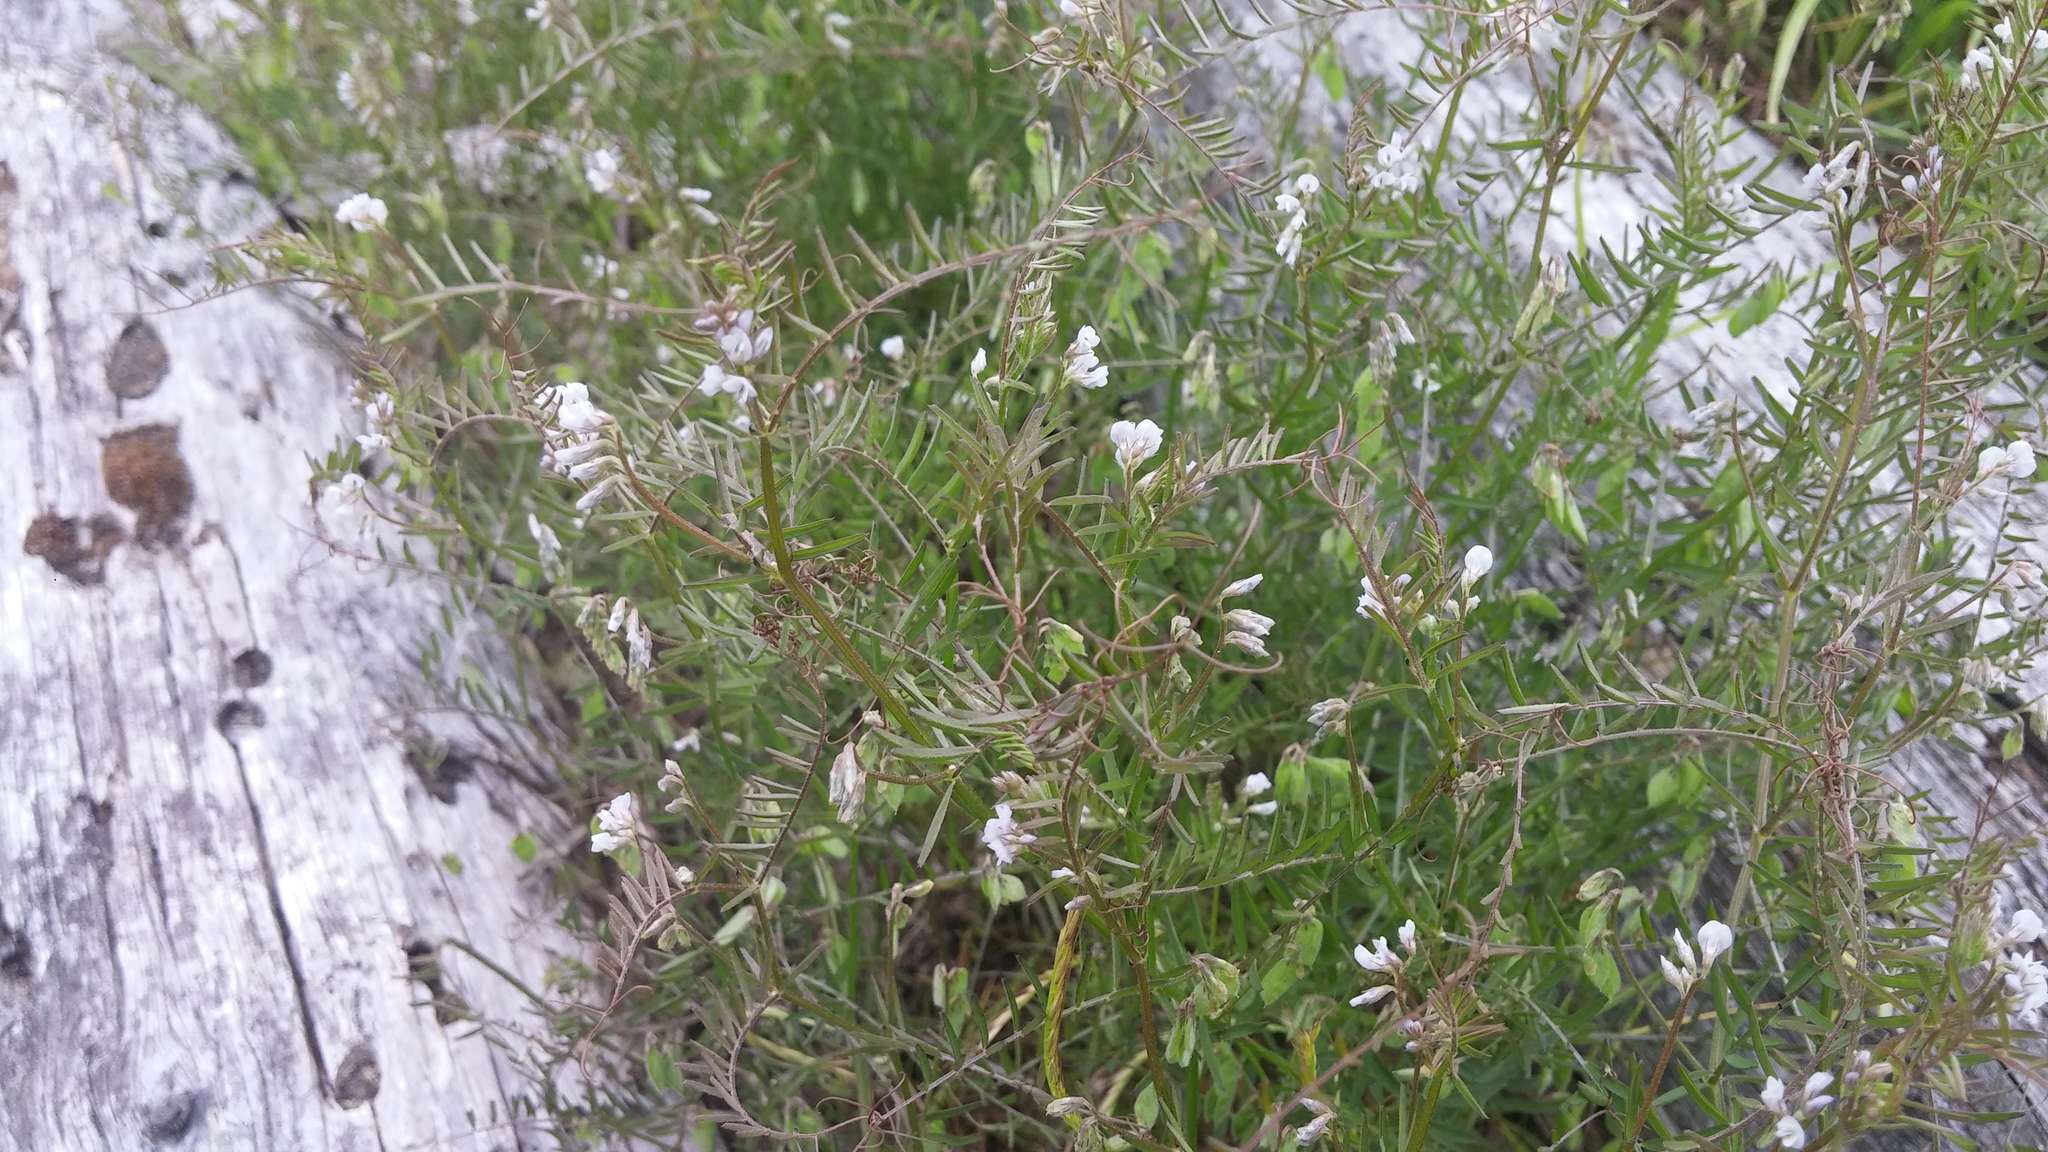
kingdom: Plantae
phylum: Tracheophyta
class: Magnoliopsida
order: Fabales
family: Fabaceae
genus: Vicia
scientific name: Vicia hirsuta
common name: Tiny vetch
